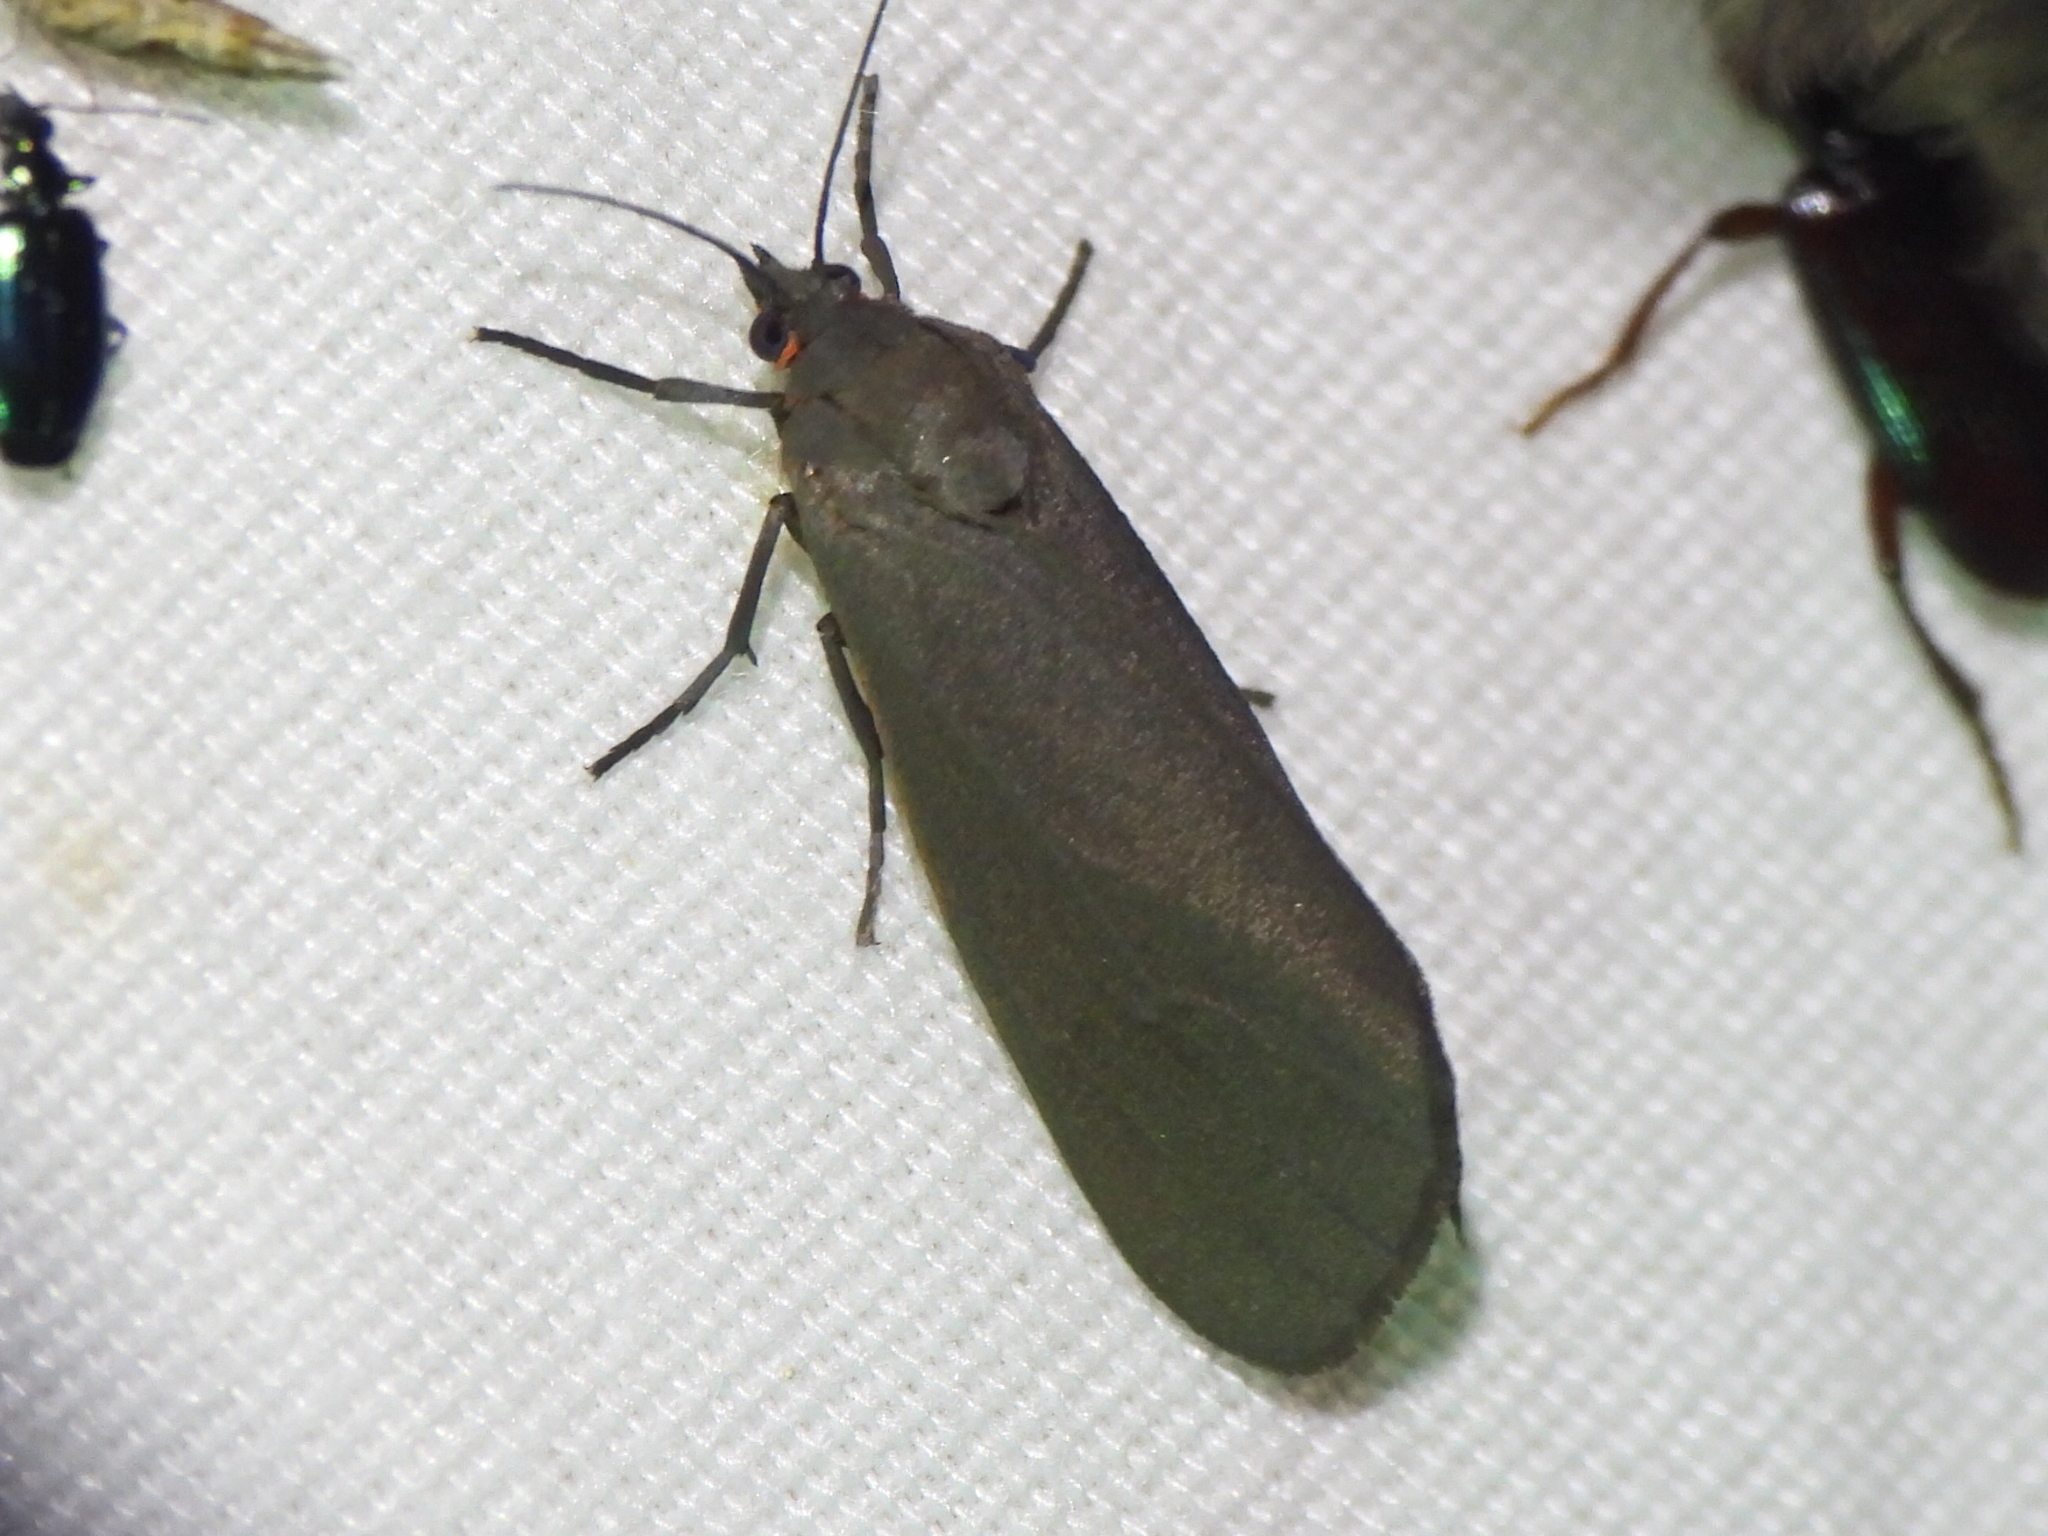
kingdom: Animalia
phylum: Arthropoda
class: Insecta
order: Lepidoptera
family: Erebidae
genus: Virbia
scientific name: Virbia laeta
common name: Joyful holomelina moth
